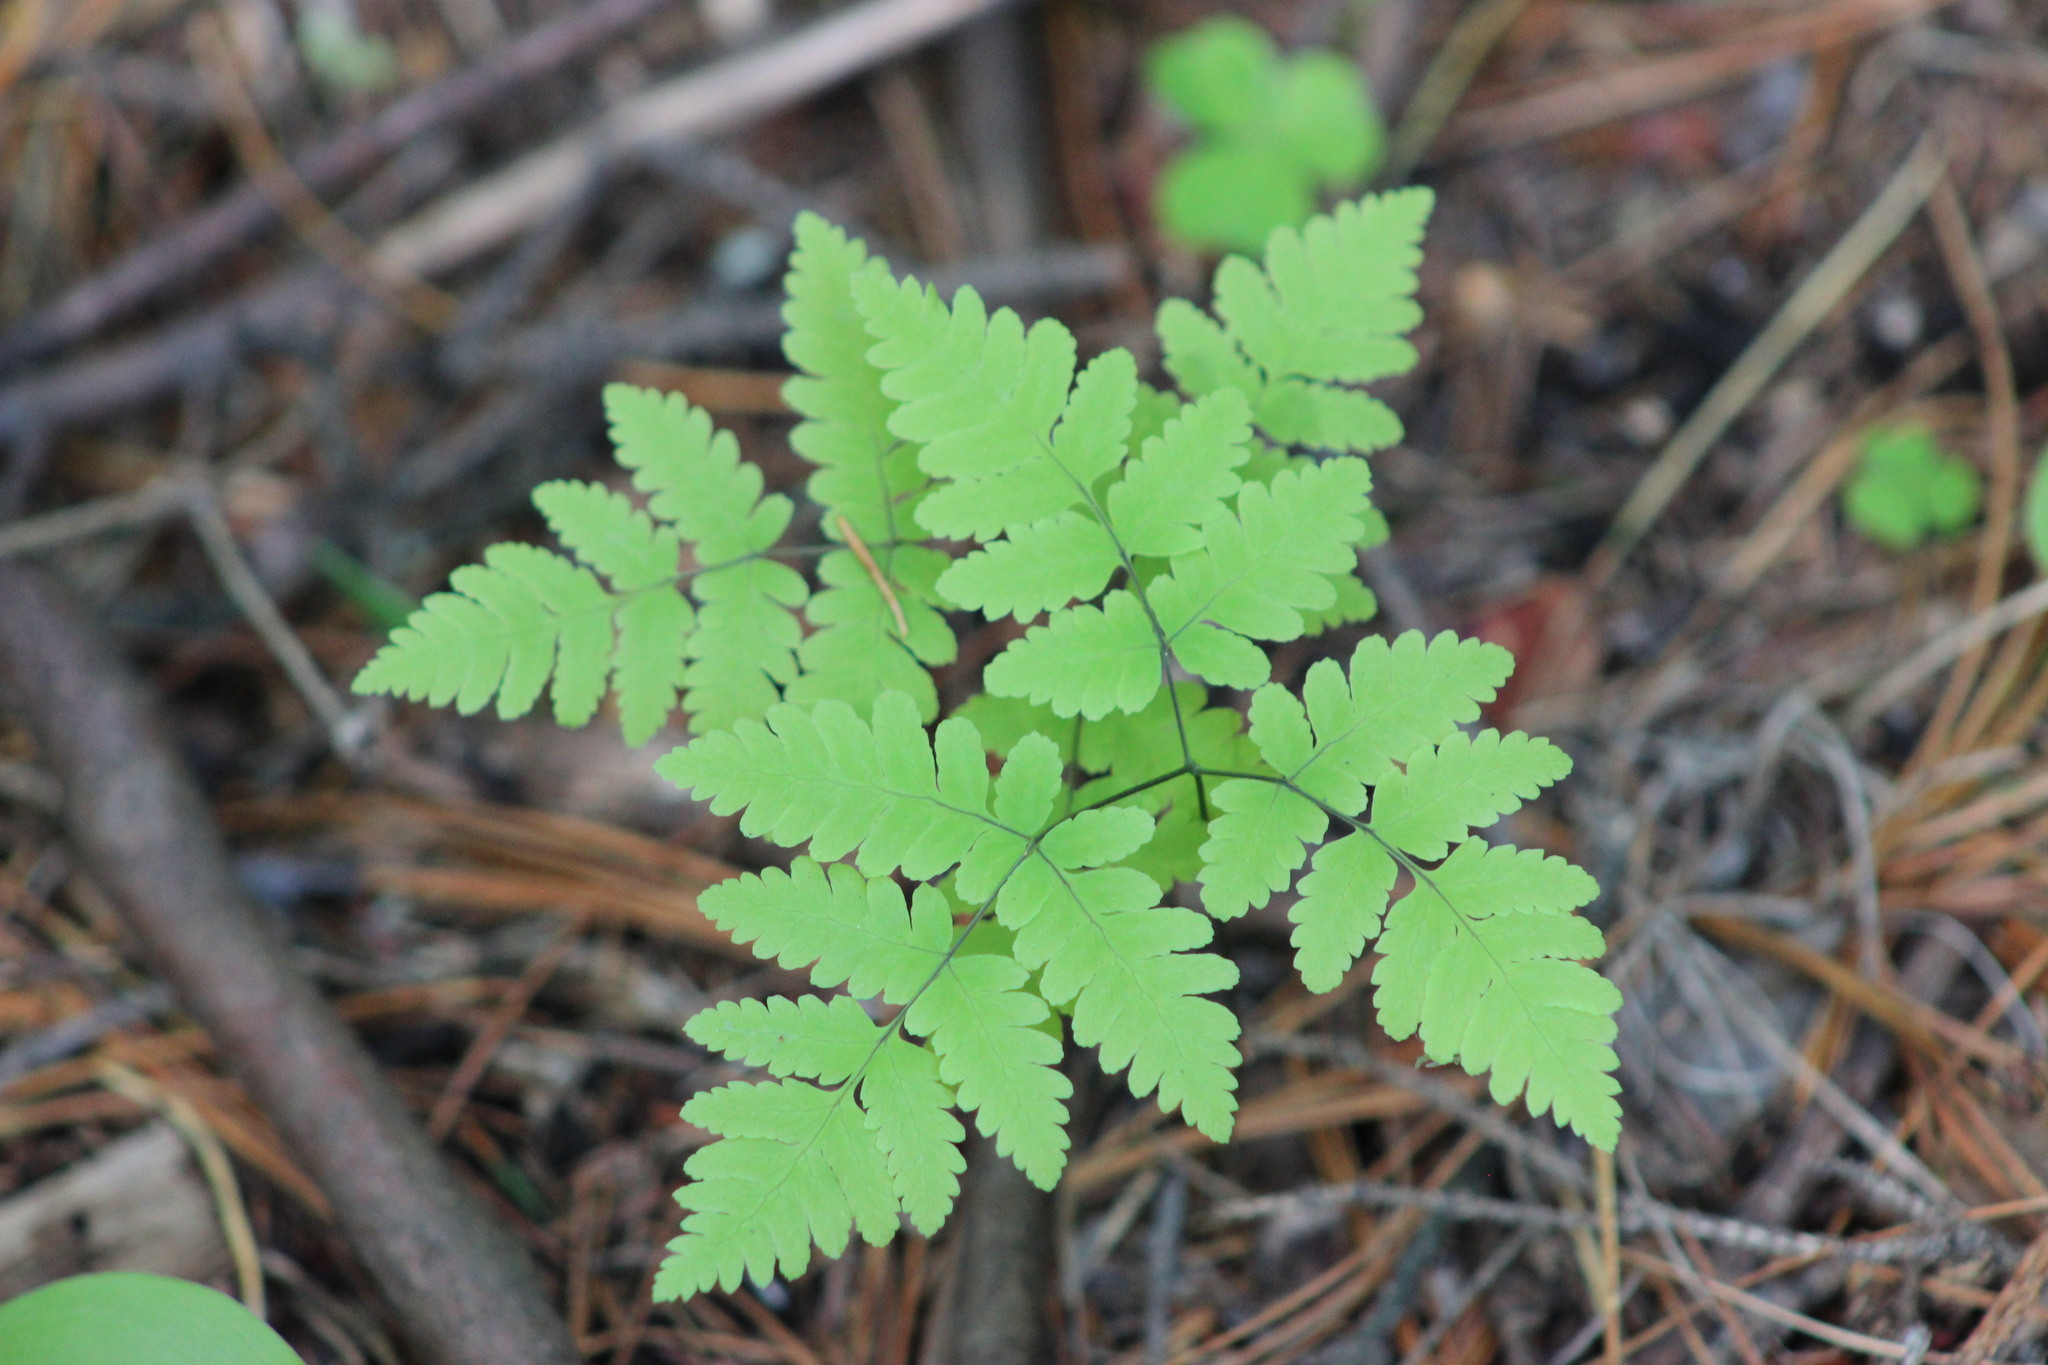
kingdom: Plantae
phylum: Tracheophyta
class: Polypodiopsida
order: Polypodiales
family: Cystopteridaceae
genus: Gymnocarpium
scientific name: Gymnocarpium dryopteris
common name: Oak fern
